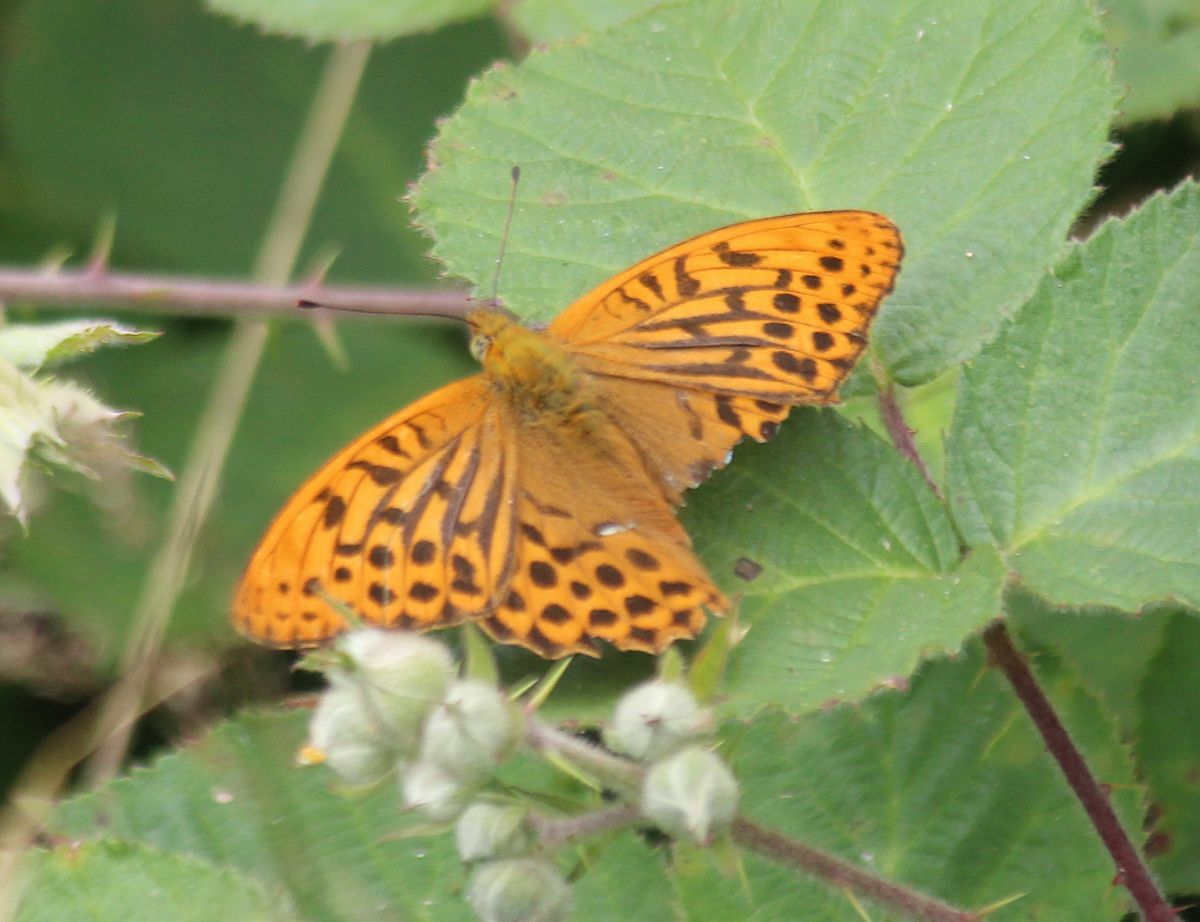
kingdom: Animalia
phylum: Arthropoda
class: Insecta
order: Lepidoptera
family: Nymphalidae
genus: Argynnis
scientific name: Argynnis paphia
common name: Silver-washed fritillary
